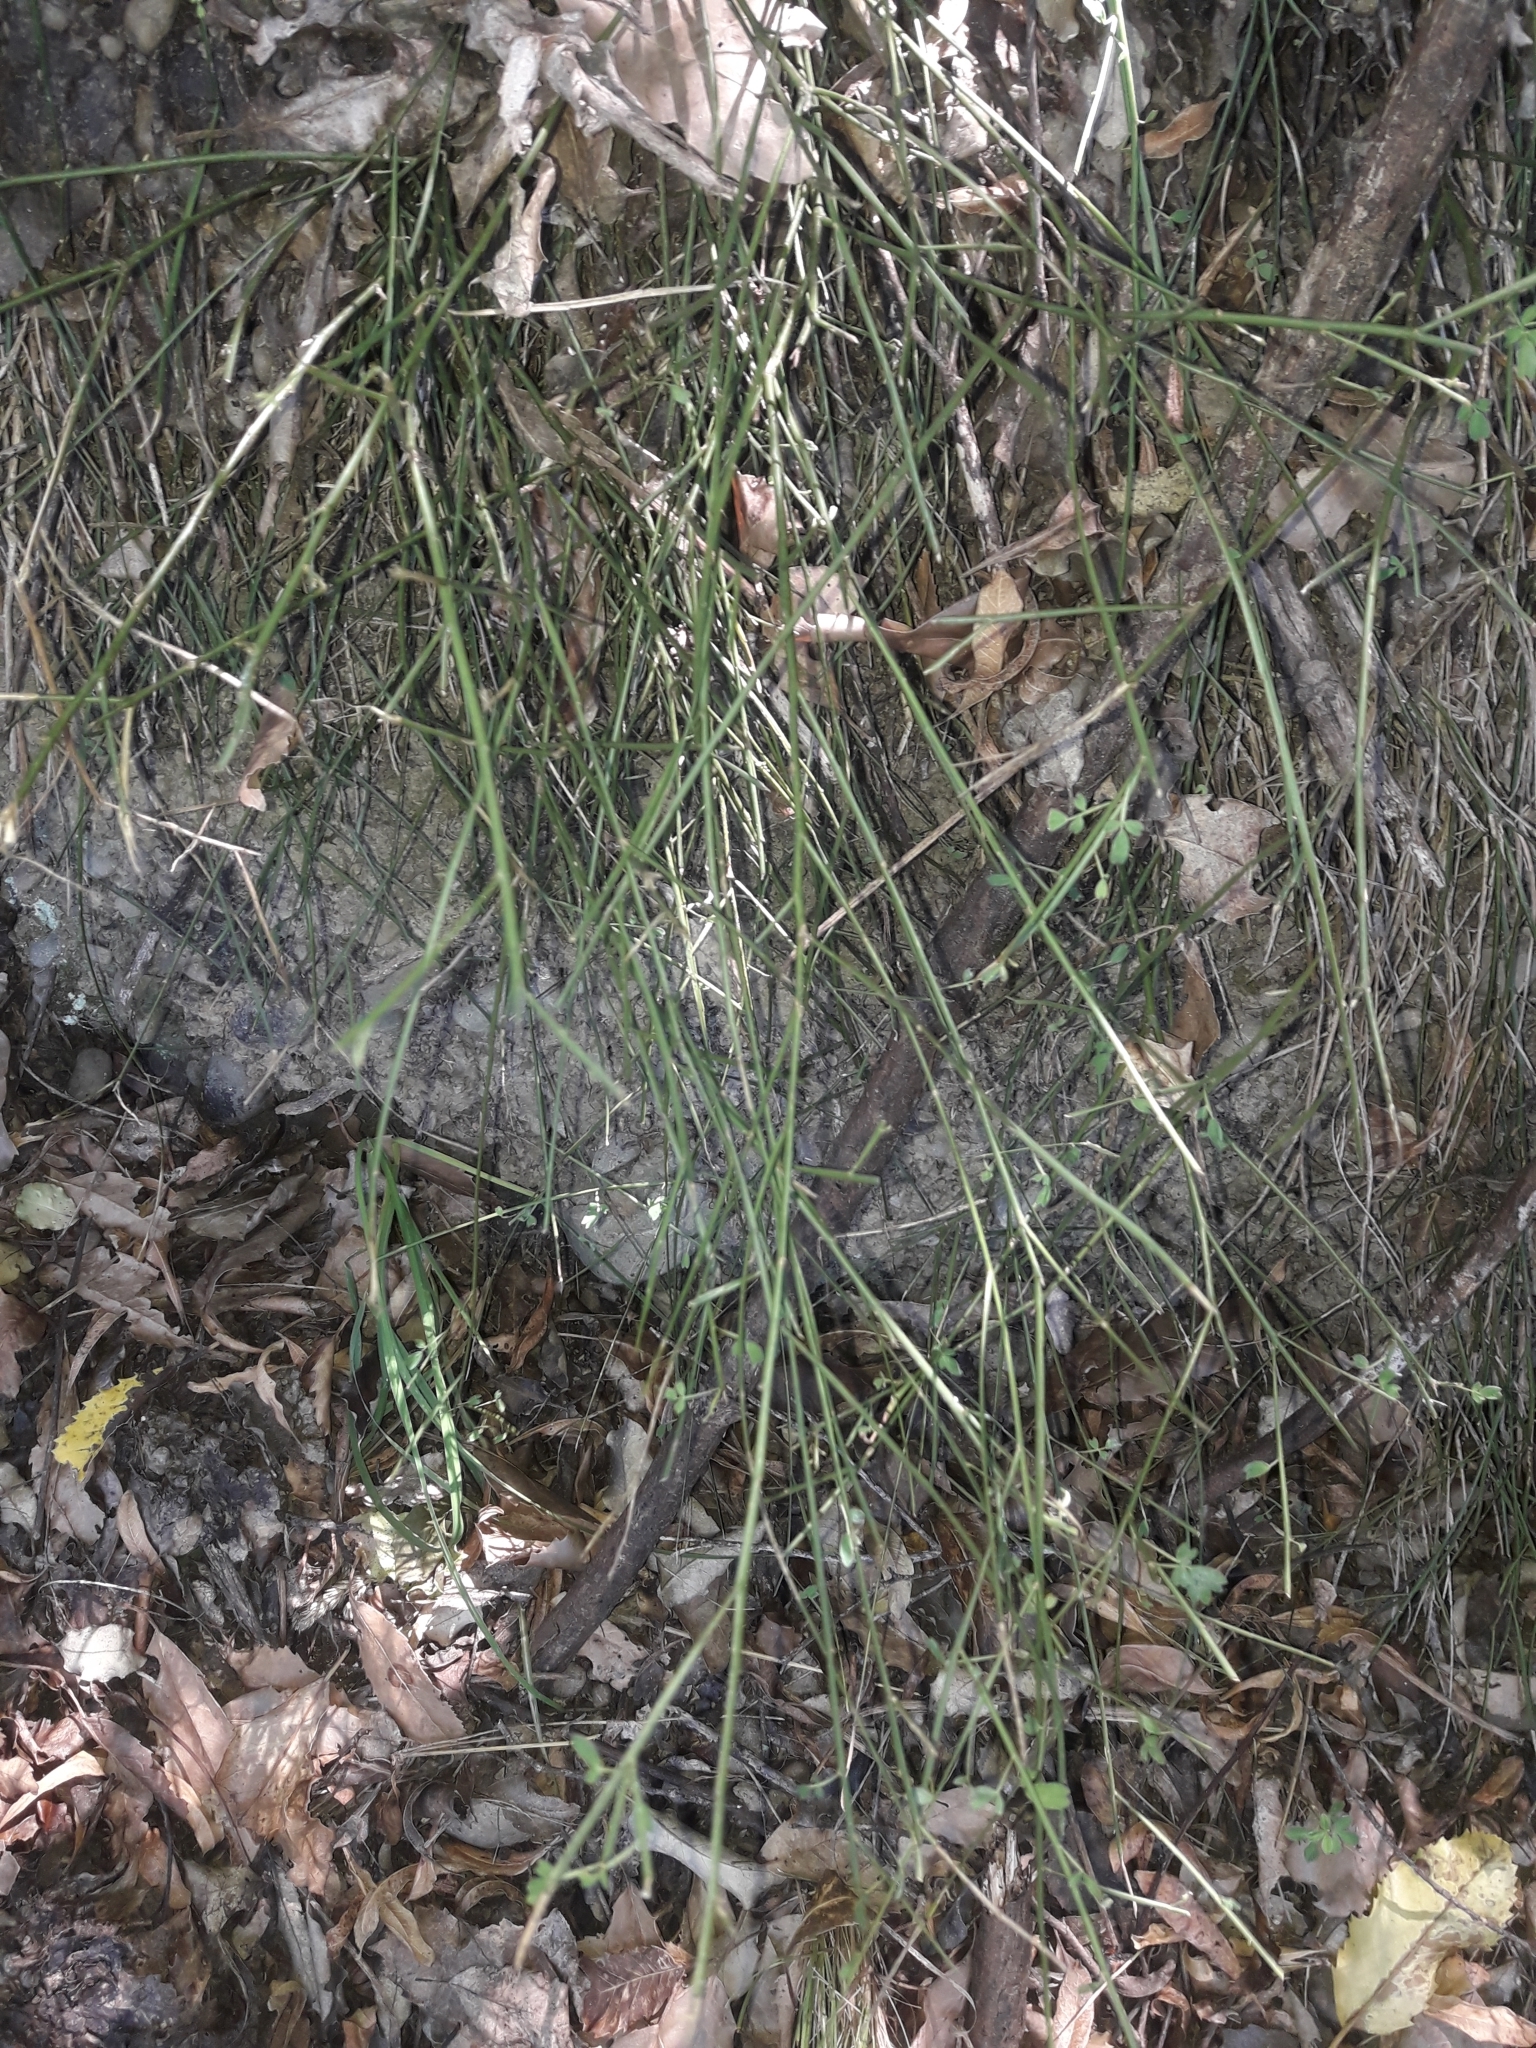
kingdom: Plantae
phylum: Tracheophyta
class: Magnoliopsida
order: Fabales
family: Fabaceae
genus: Carmichaelia
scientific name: Carmichaelia australis
